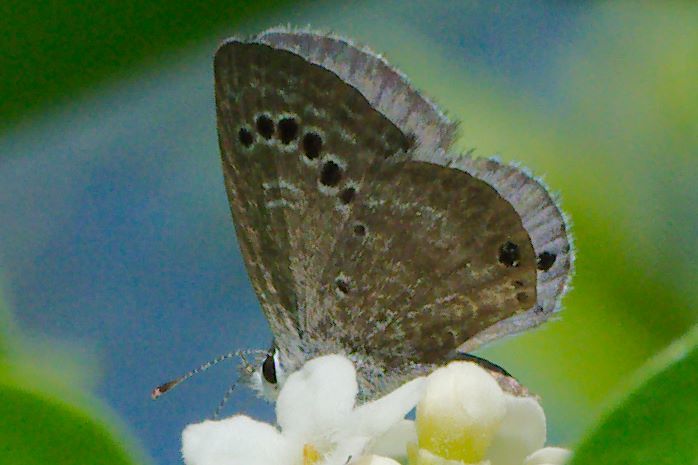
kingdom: Animalia
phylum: Arthropoda
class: Insecta
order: Lepidoptera
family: Lycaenidae
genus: Echinargus
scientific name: Echinargus isola
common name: Reakirt's blue
